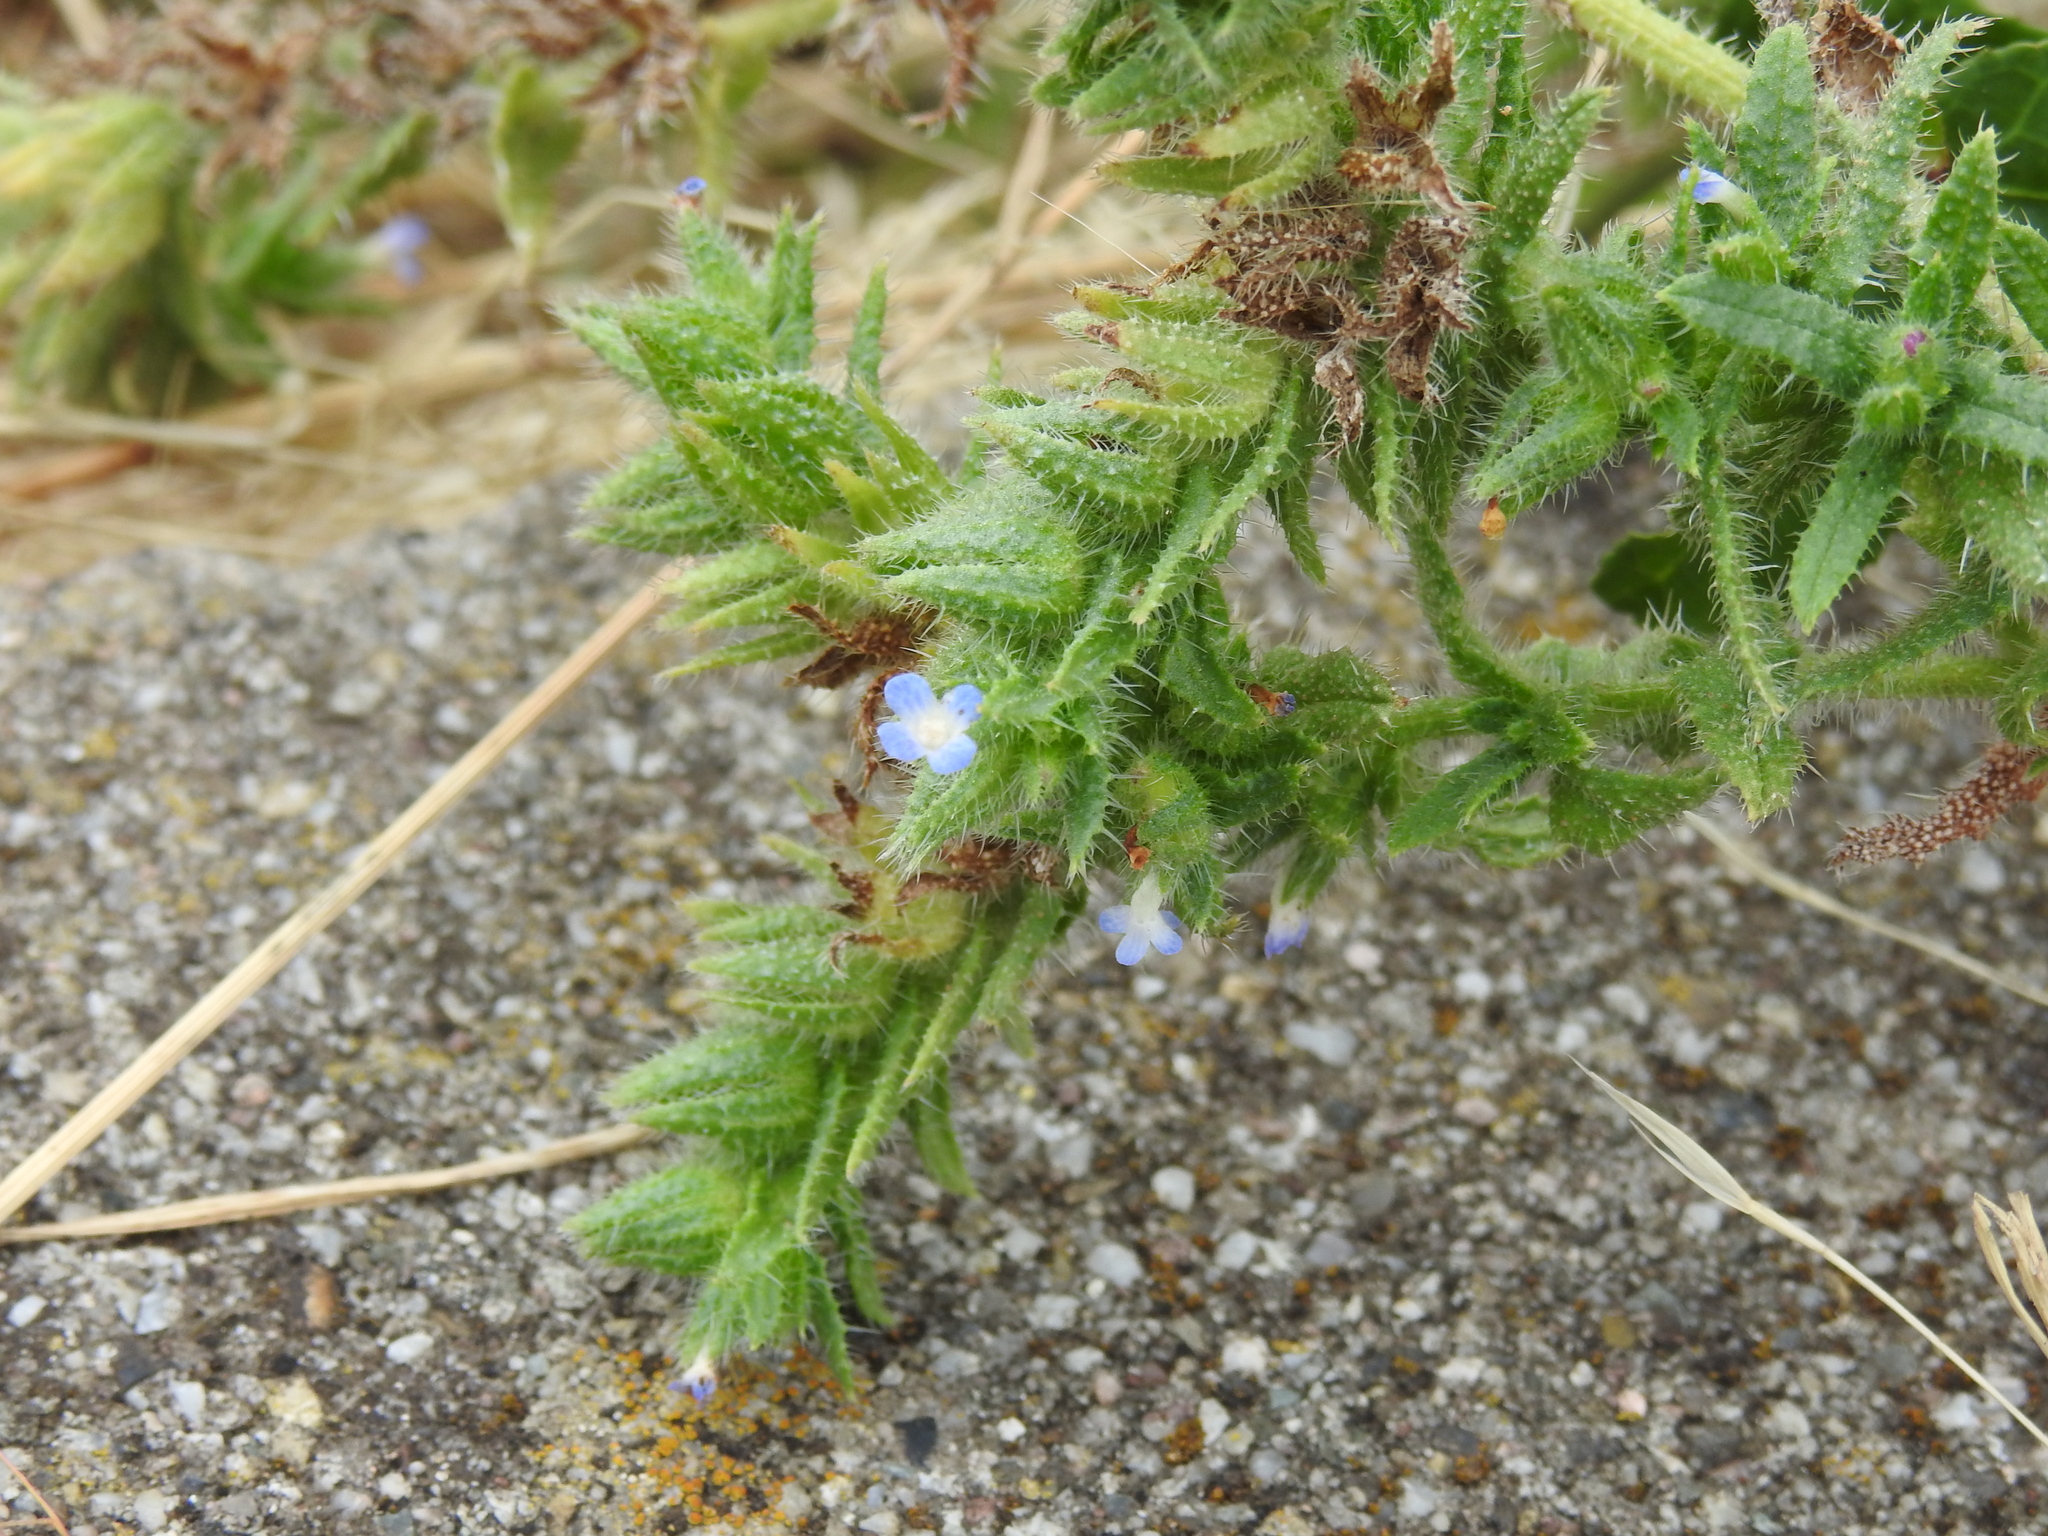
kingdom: Plantae
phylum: Tracheophyta
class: Magnoliopsida
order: Boraginales
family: Boraginaceae
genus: Lycopsis
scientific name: Lycopsis arvensis
